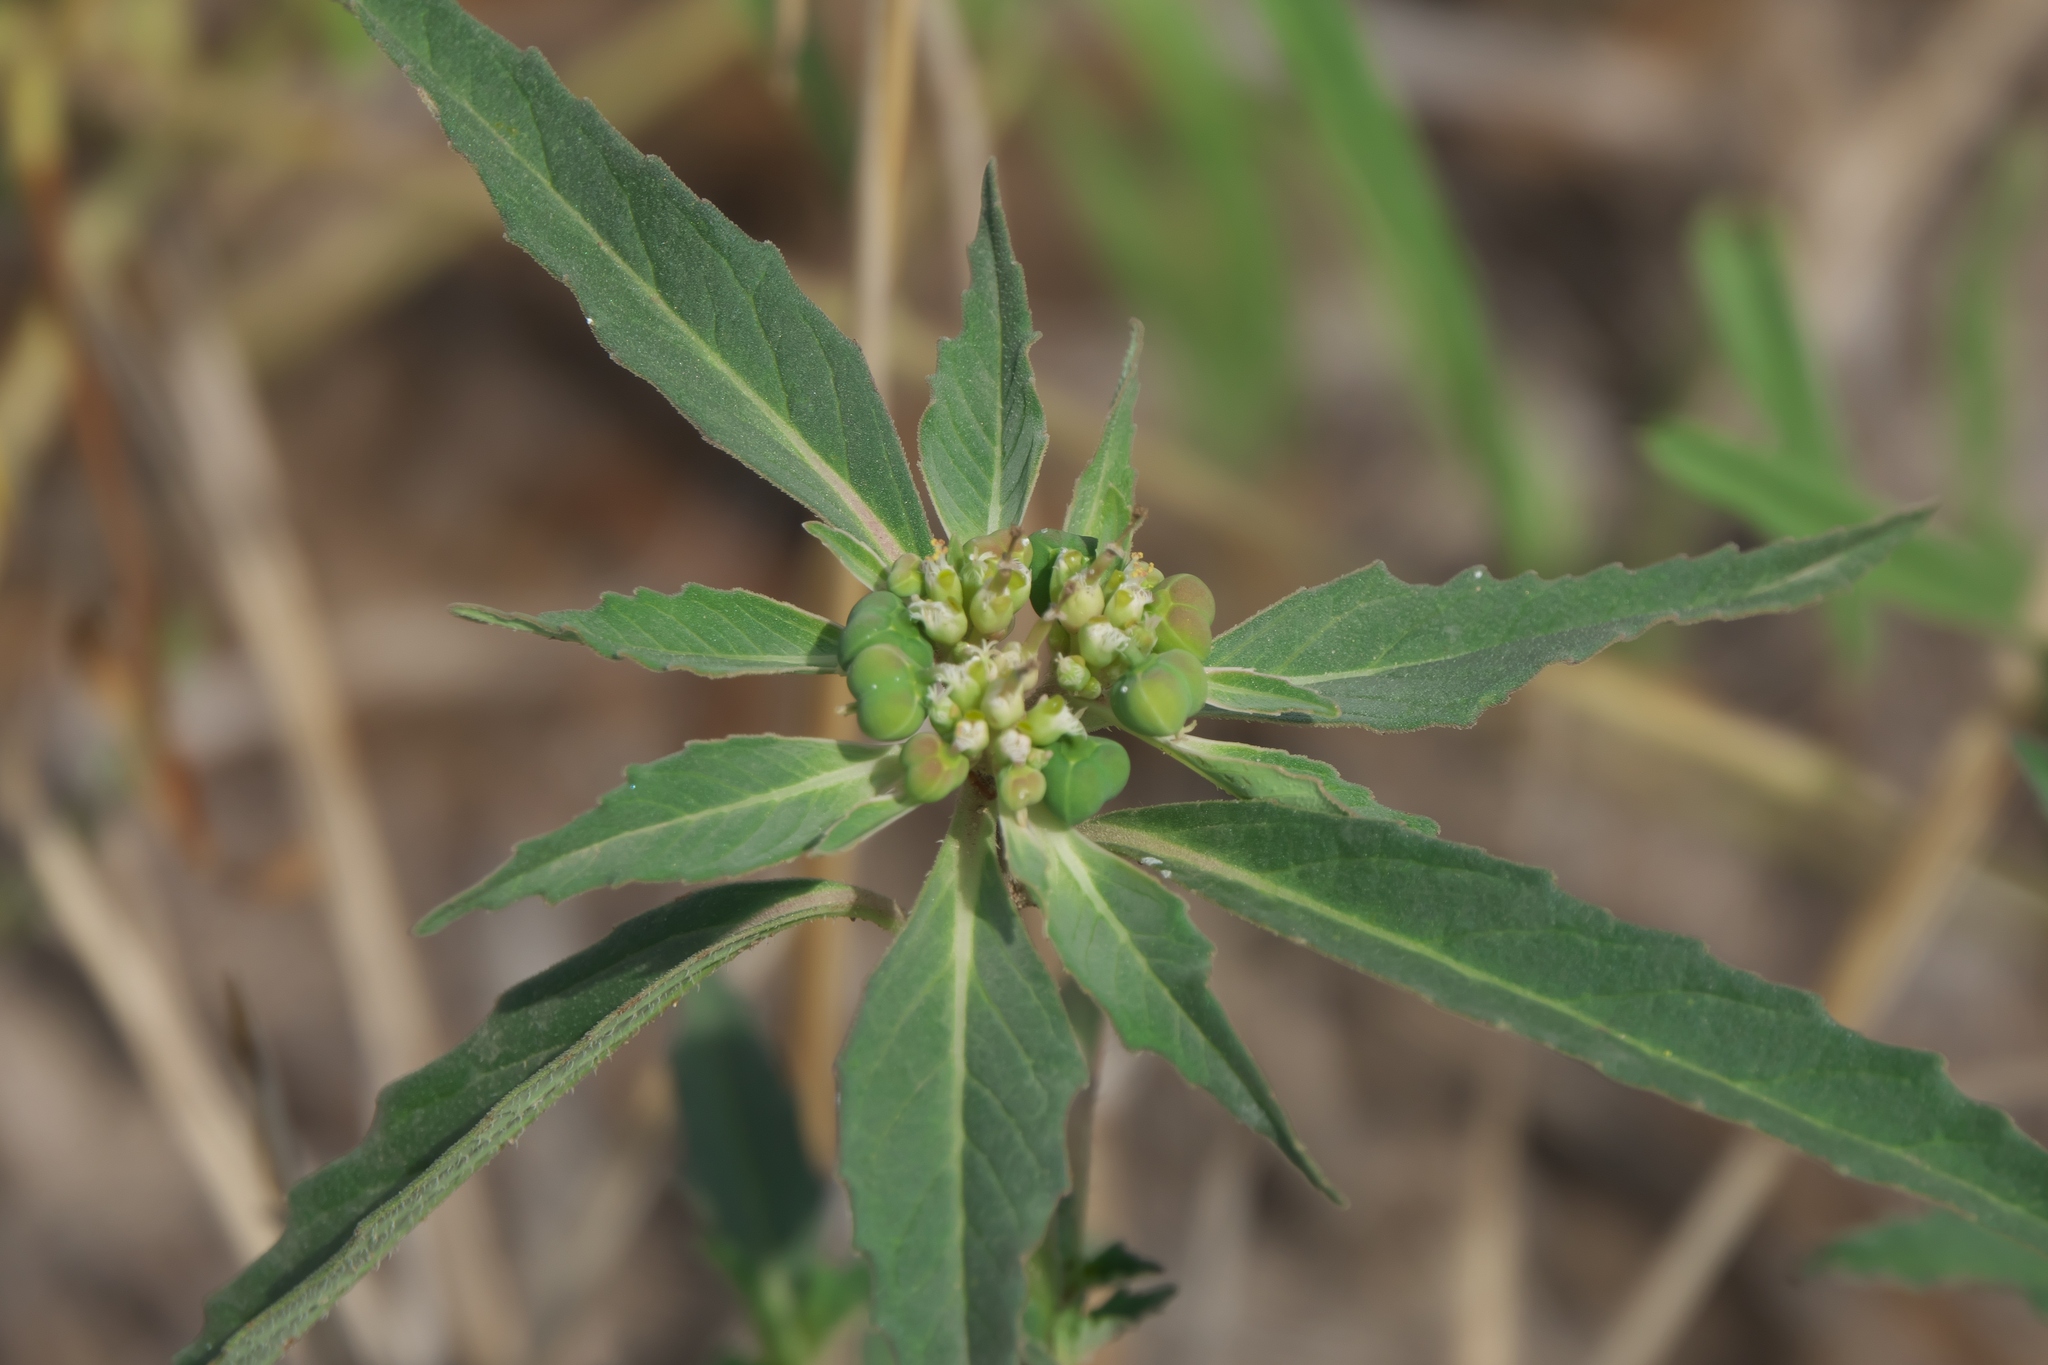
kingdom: Plantae
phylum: Tracheophyta
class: Magnoliopsida
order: Malpighiales
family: Euphorbiaceae
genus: Euphorbia
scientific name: Euphorbia davidii
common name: David's spurge
